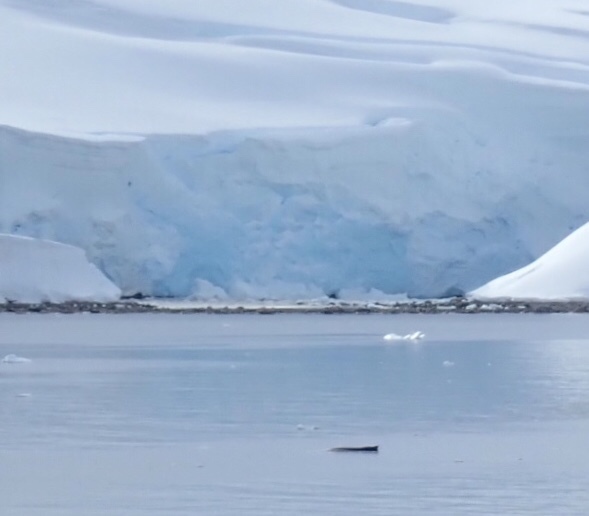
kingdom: Animalia
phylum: Chordata
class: Mammalia
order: Cetacea
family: Balaenopteridae
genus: Megaptera
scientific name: Megaptera novaeangliae
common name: Humpback whale
